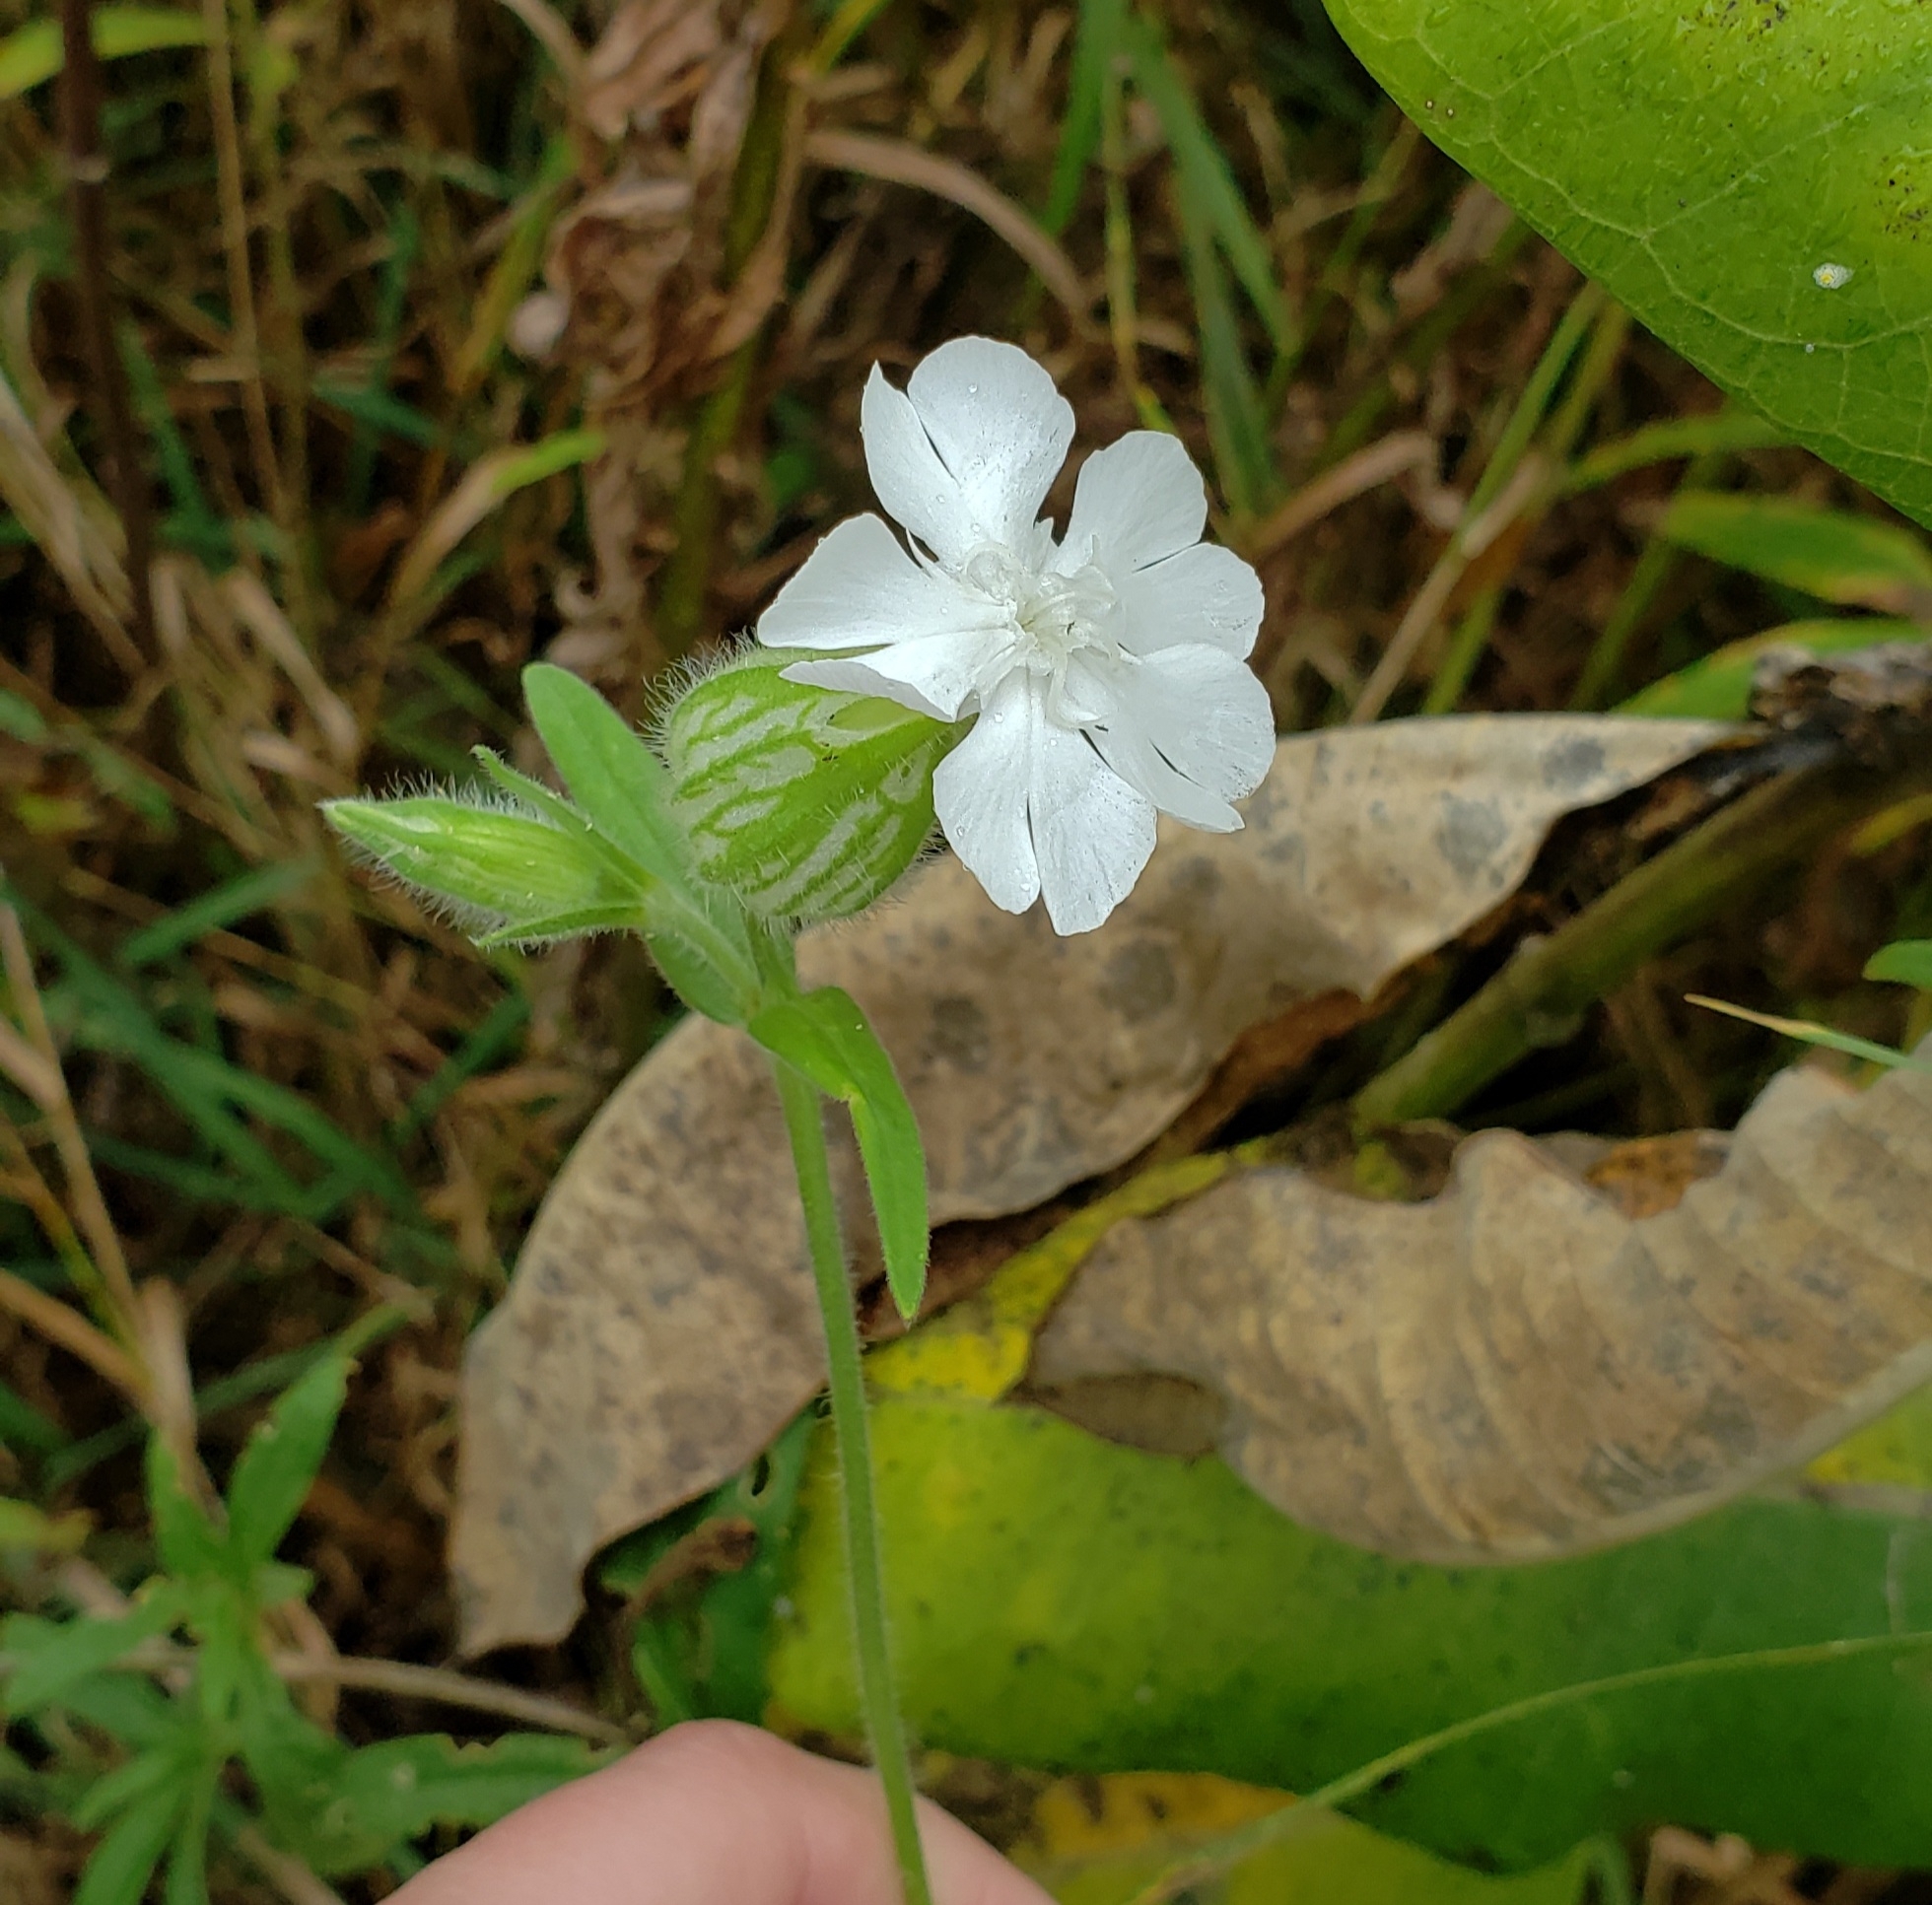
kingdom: Plantae
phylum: Tracheophyta
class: Magnoliopsida
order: Caryophyllales
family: Caryophyllaceae
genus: Silene
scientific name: Silene latifolia
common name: White campion
